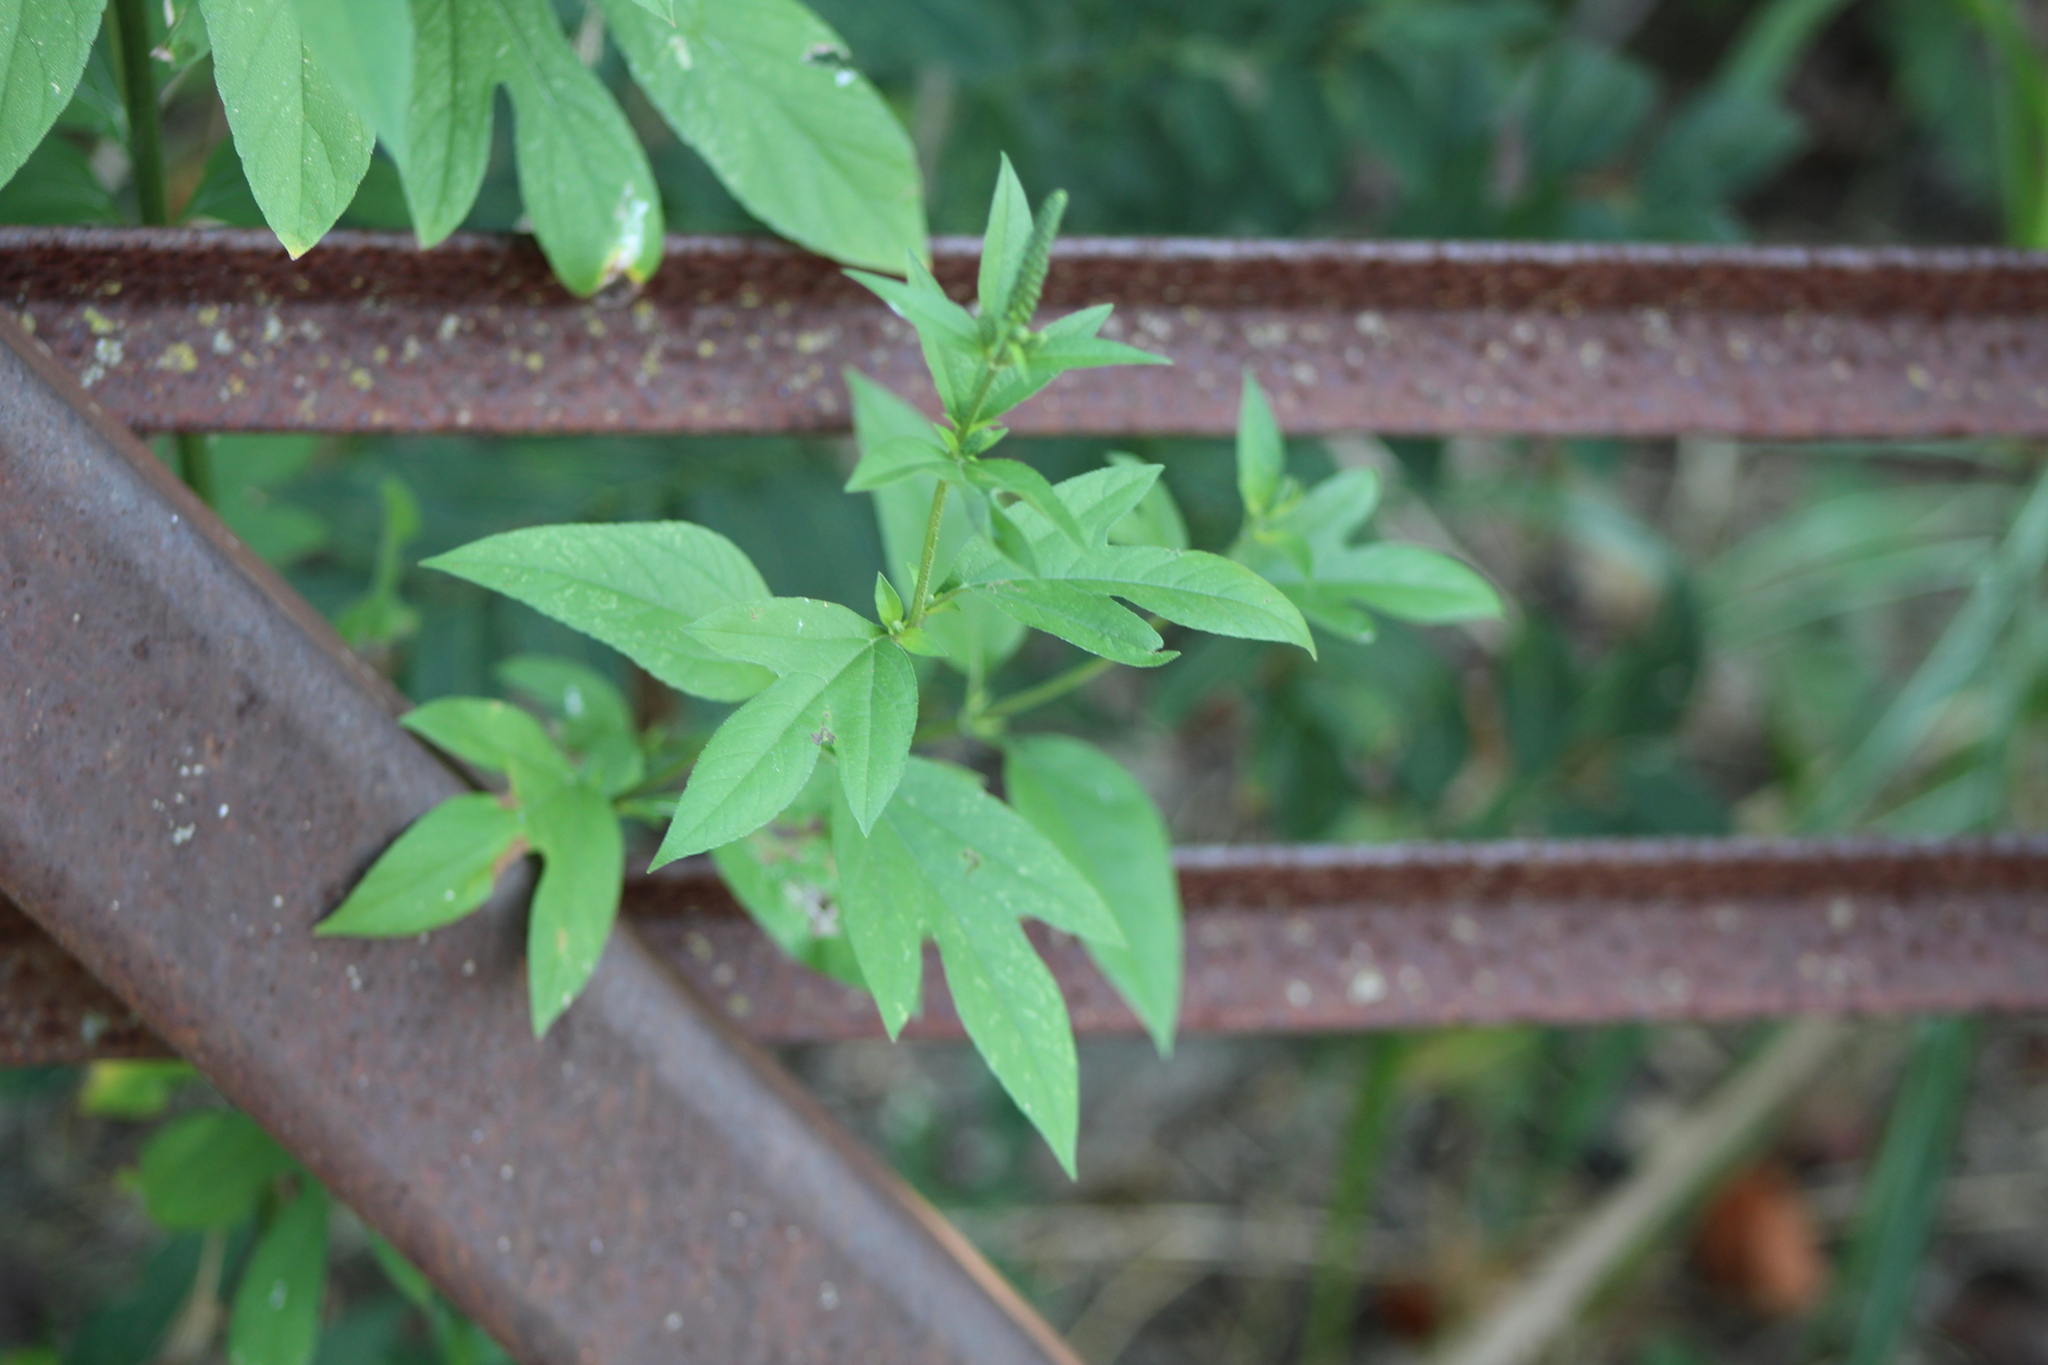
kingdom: Plantae
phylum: Tracheophyta
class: Magnoliopsida
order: Asterales
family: Asteraceae
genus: Ambrosia
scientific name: Ambrosia trifida
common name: Giant ragweed
